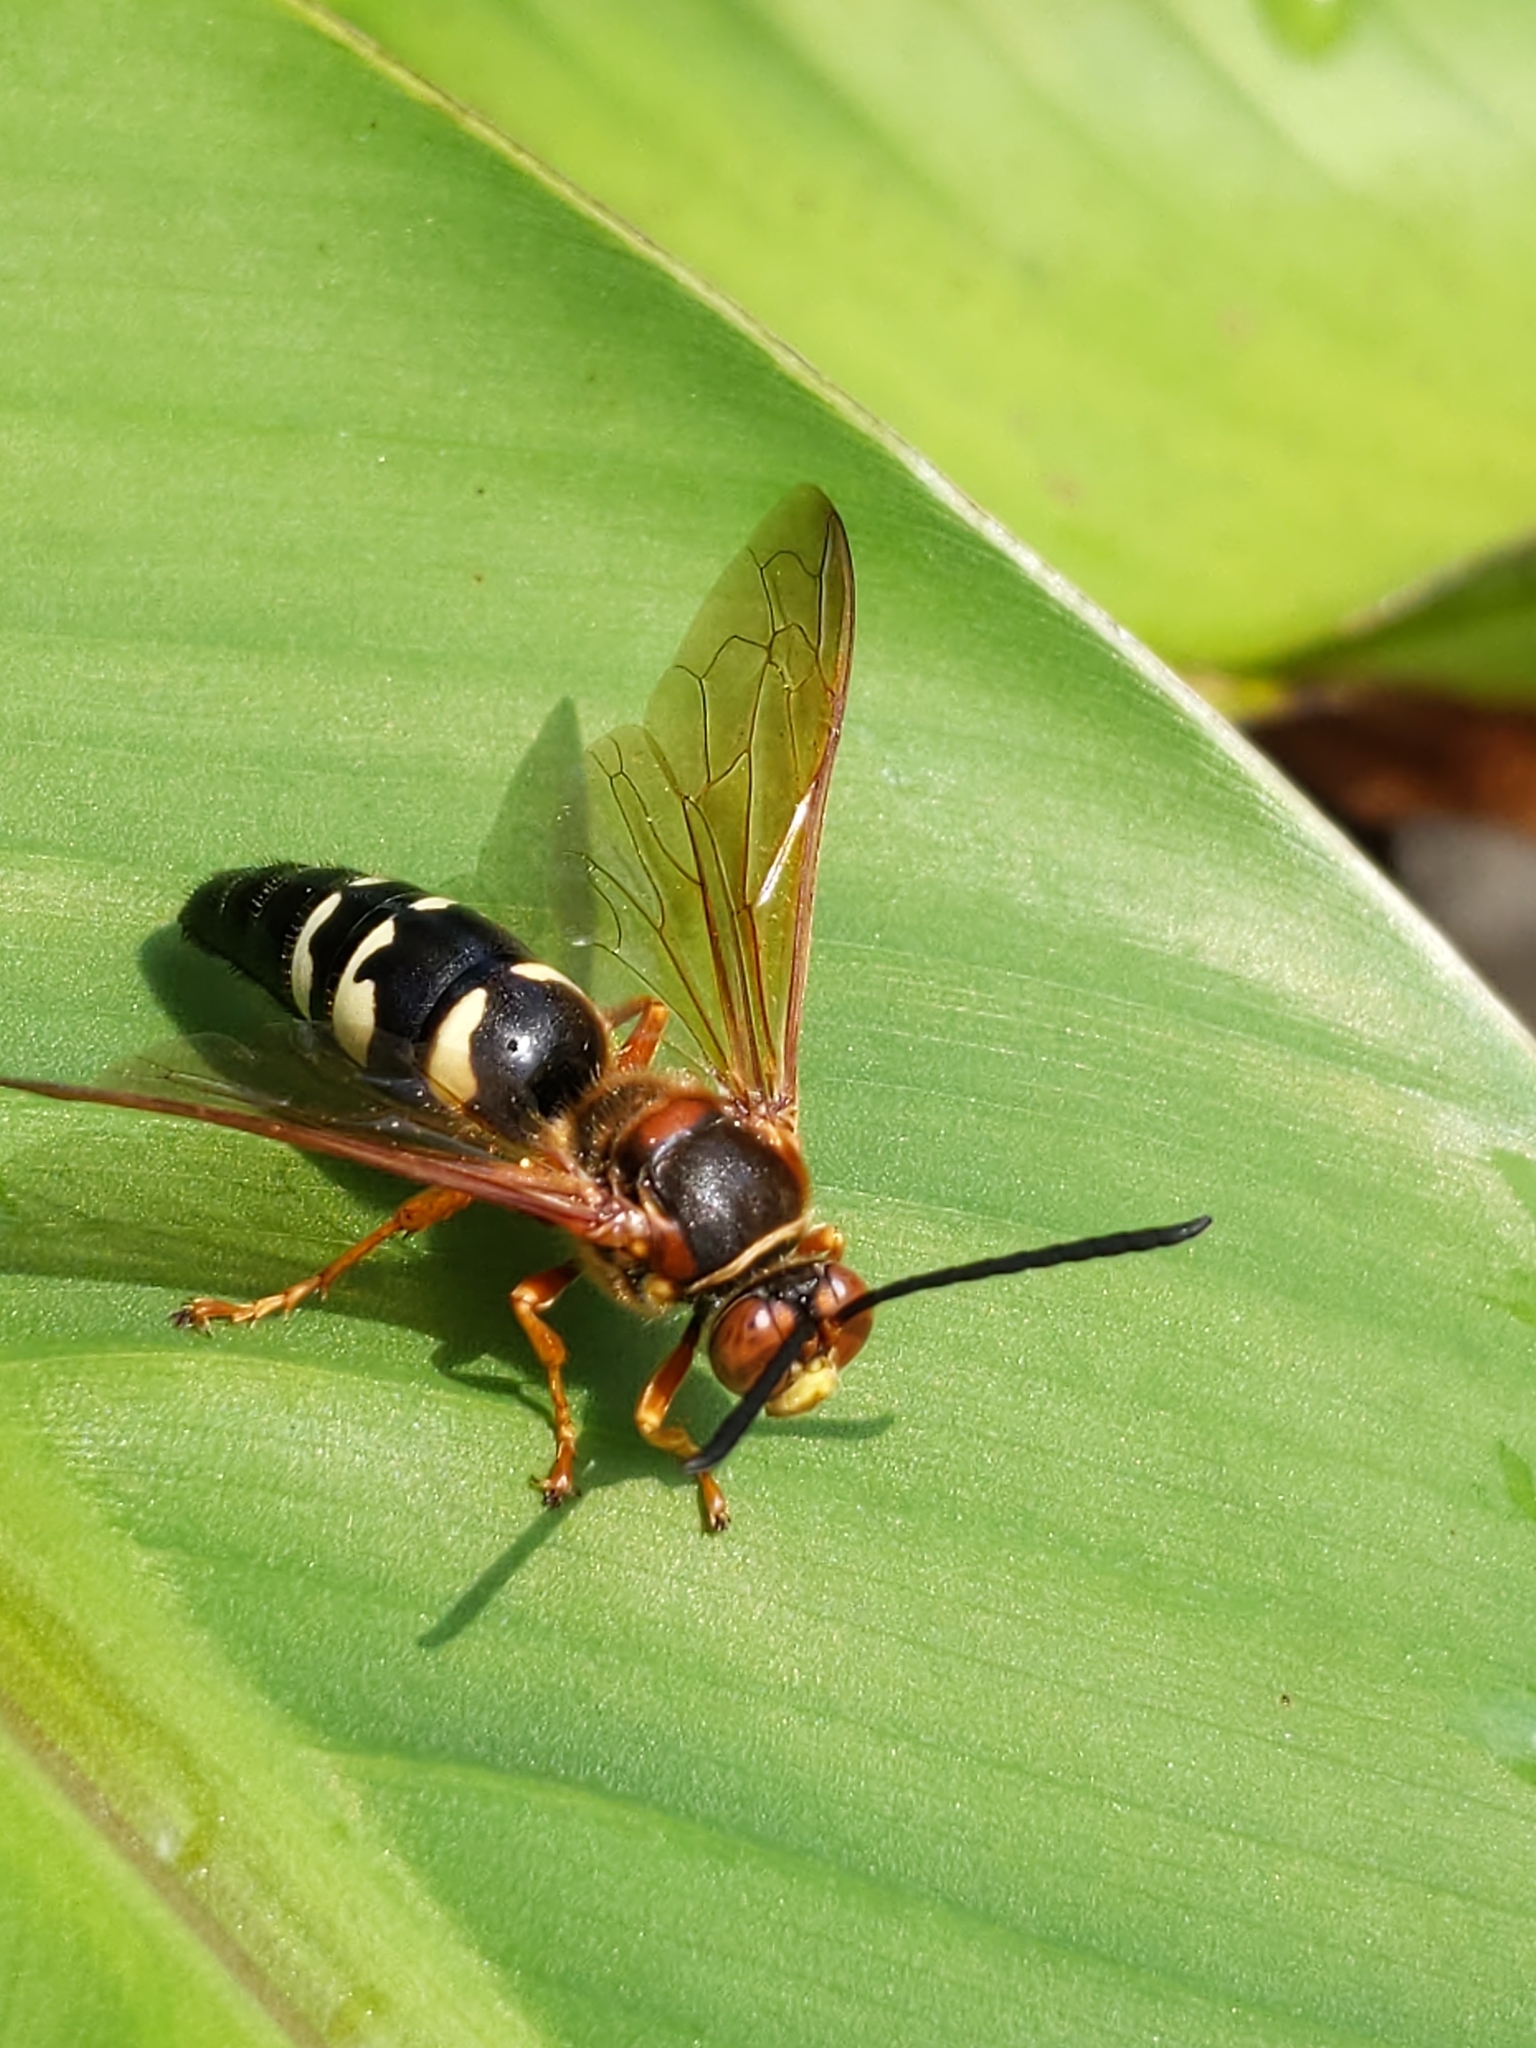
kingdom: Animalia
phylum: Arthropoda
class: Insecta
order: Hymenoptera
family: Crabronidae
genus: Sphecius
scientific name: Sphecius speciosus
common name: Cicada killer
